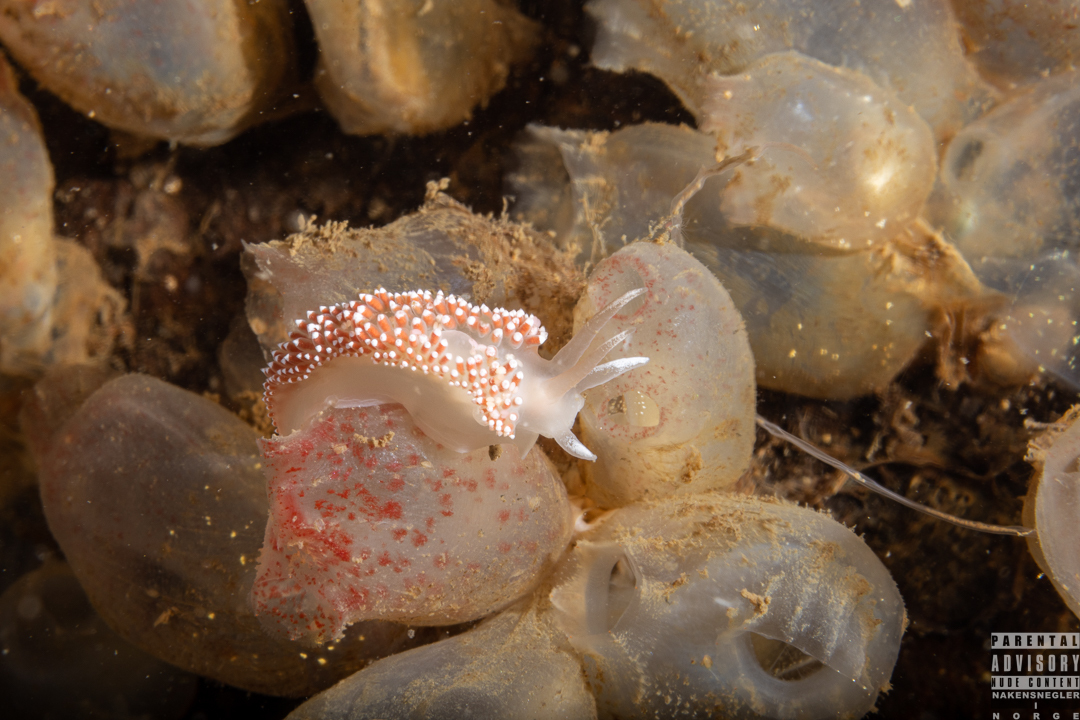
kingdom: Animalia
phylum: Mollusca
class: Gastropoda
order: Nudibranchia
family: Coryphellidae
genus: Coryphella
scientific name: Coryphella verrucosa
